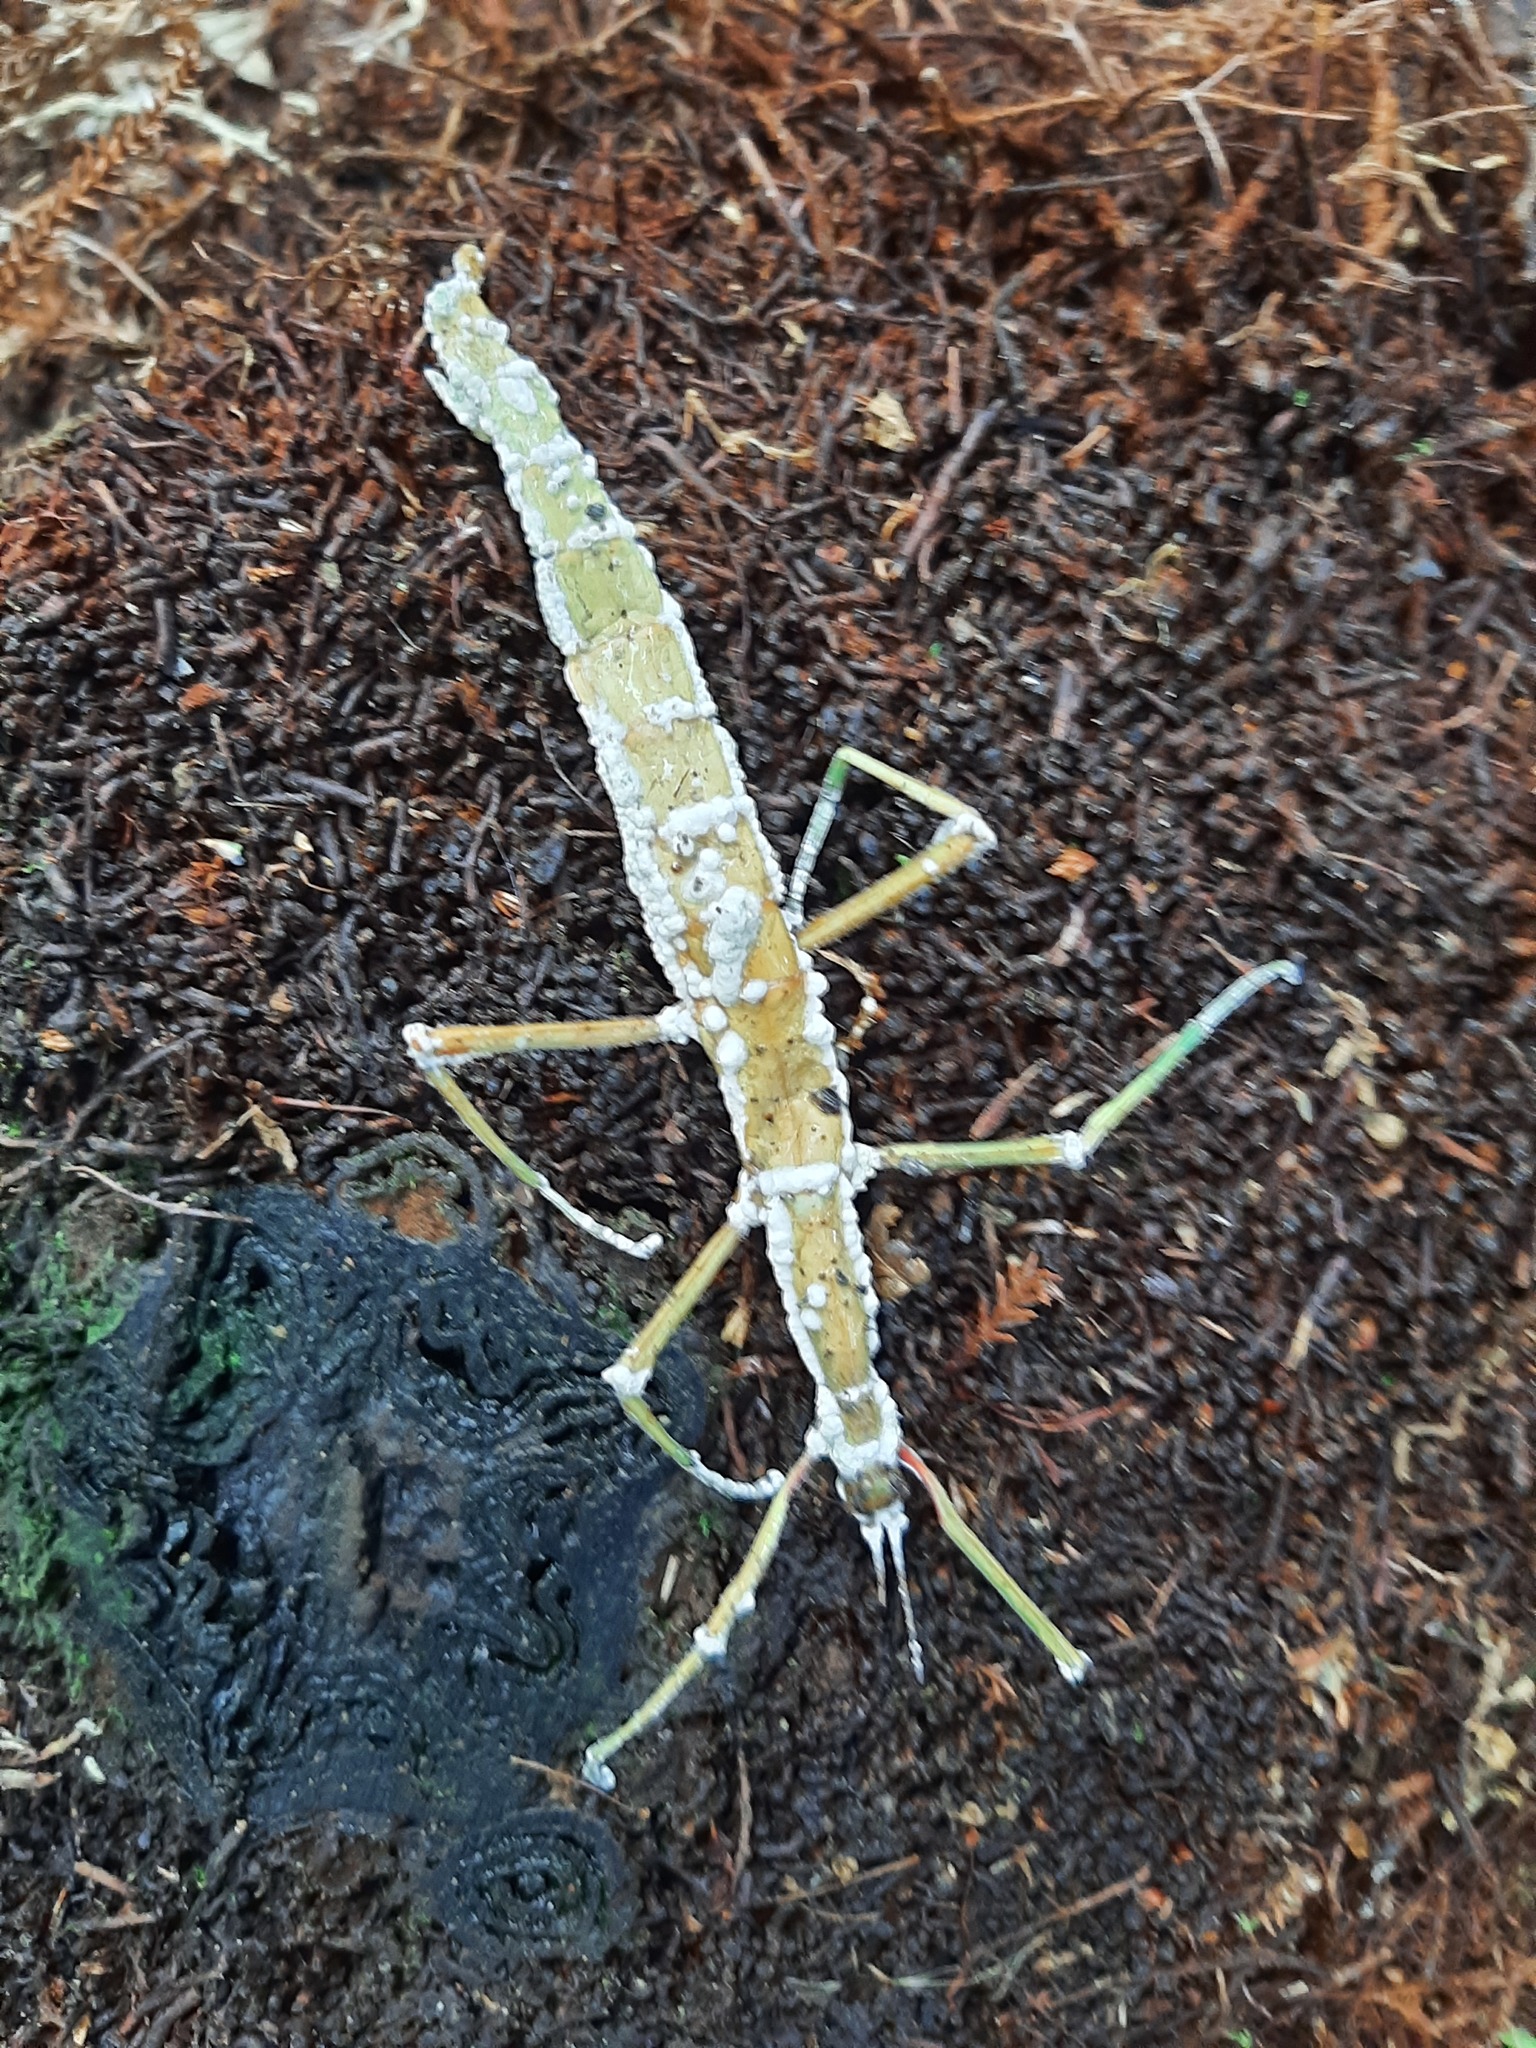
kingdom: Animalia
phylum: Arthropoda
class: Insecta
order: Phasmida
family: Phasmatidae
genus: Acanthoxyla
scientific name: Acanthoxyla prasina
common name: Black-spined stick insect
